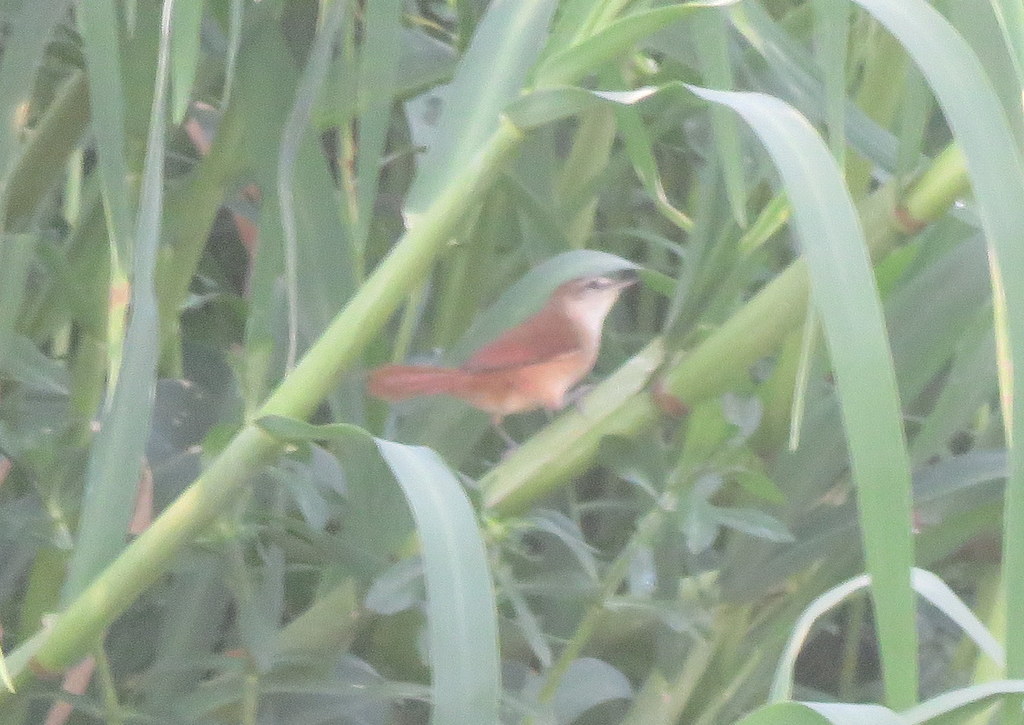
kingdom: Animalia
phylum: Chordata
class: Aves
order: Passeriformes
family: Furnariidae
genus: Certhiaxis
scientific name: Certhiaxis cinnamomeus
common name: Yellow-chinned spinetail
